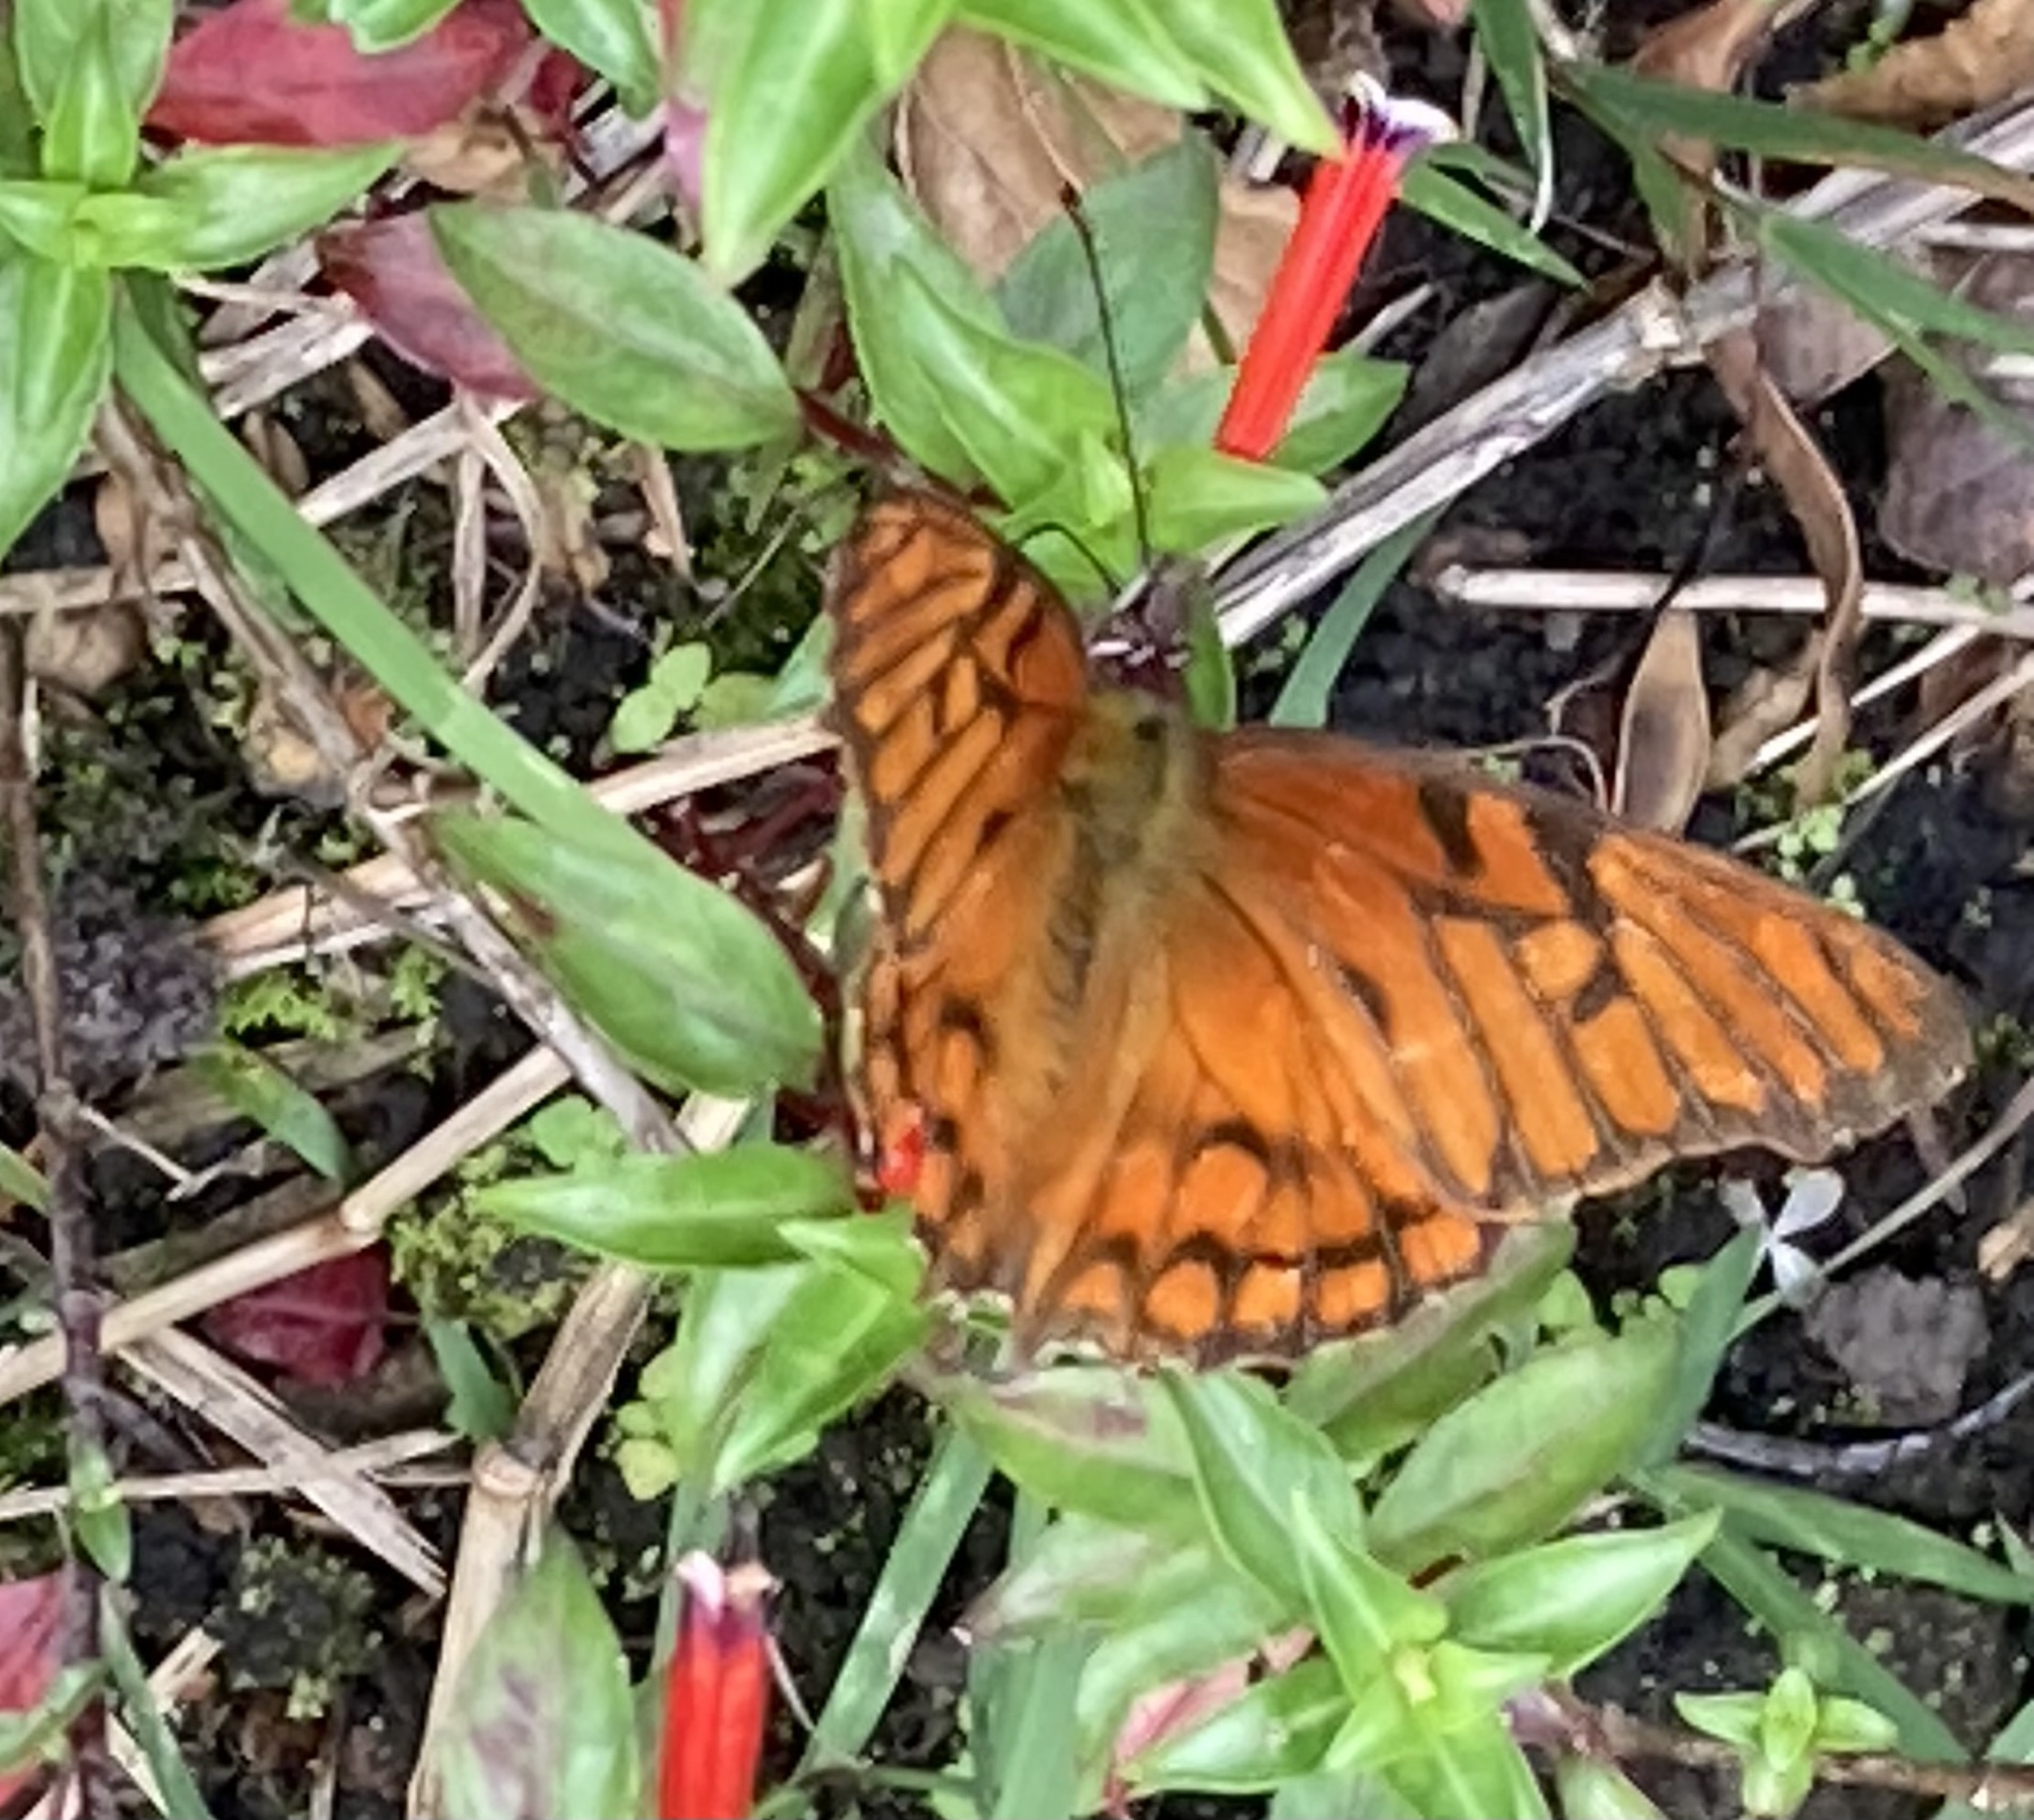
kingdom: Animalia
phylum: Arthropoda
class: Insecta
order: Lepidoptera
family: Nymphalidae
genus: Dione
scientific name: Dione glycera
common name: Andean silverspot
